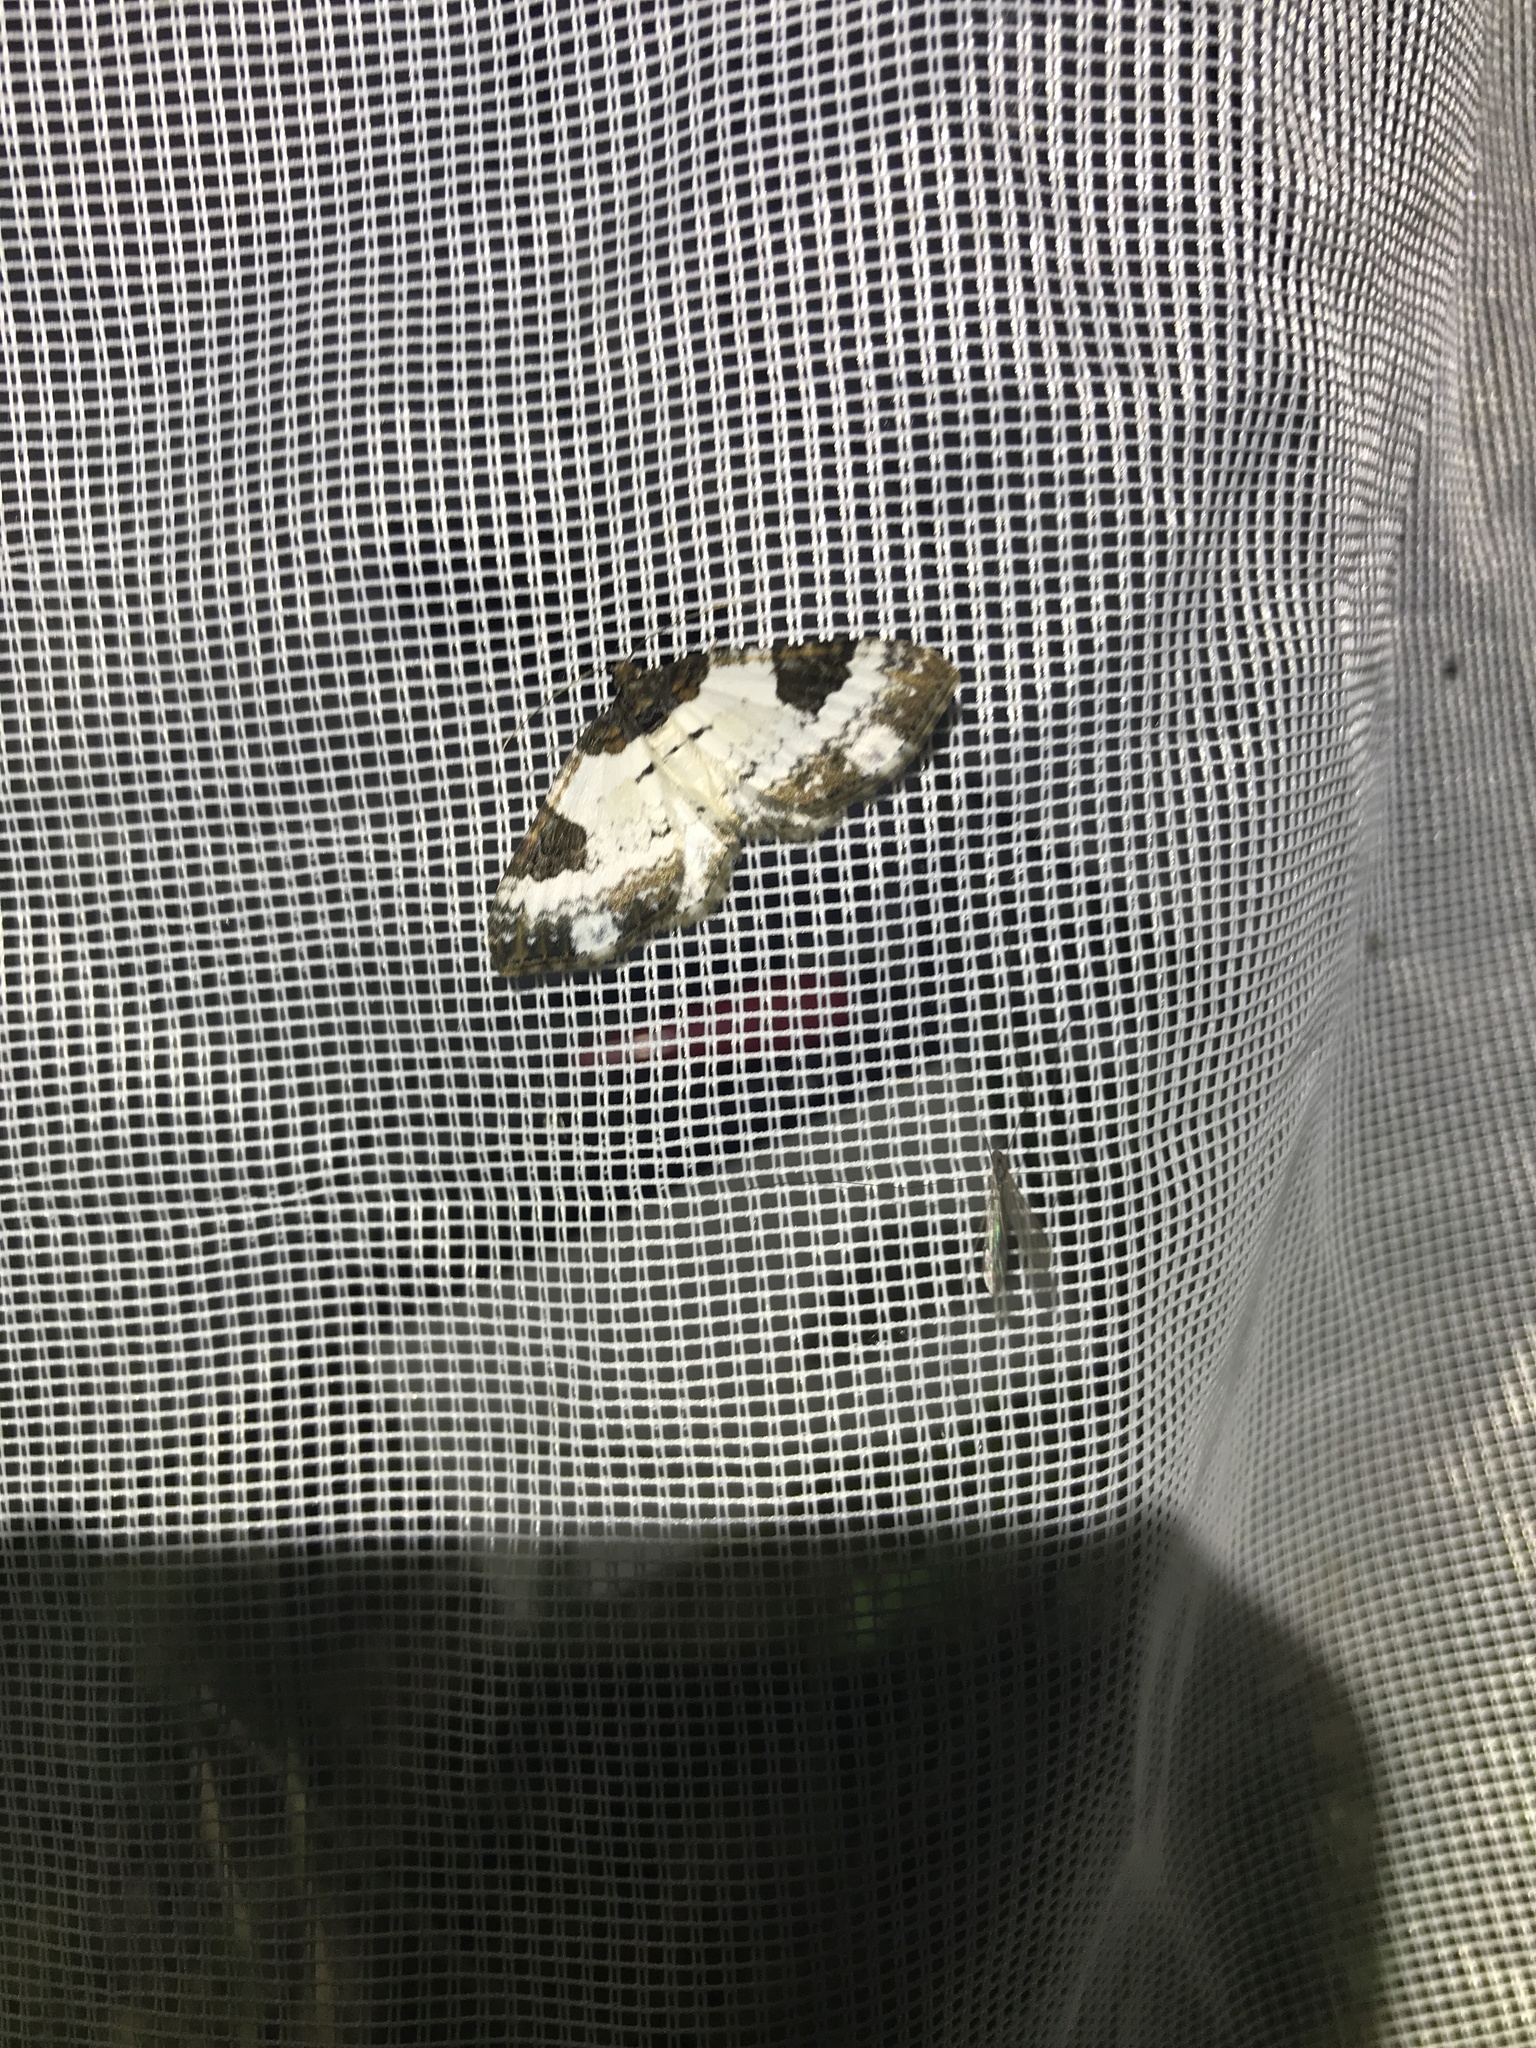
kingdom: Animalia
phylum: Arthropoda
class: Insecta
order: Lepidoptera
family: Geometridae
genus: Melanthia
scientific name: Melanthia procellata
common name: Pretty chalk carpet
